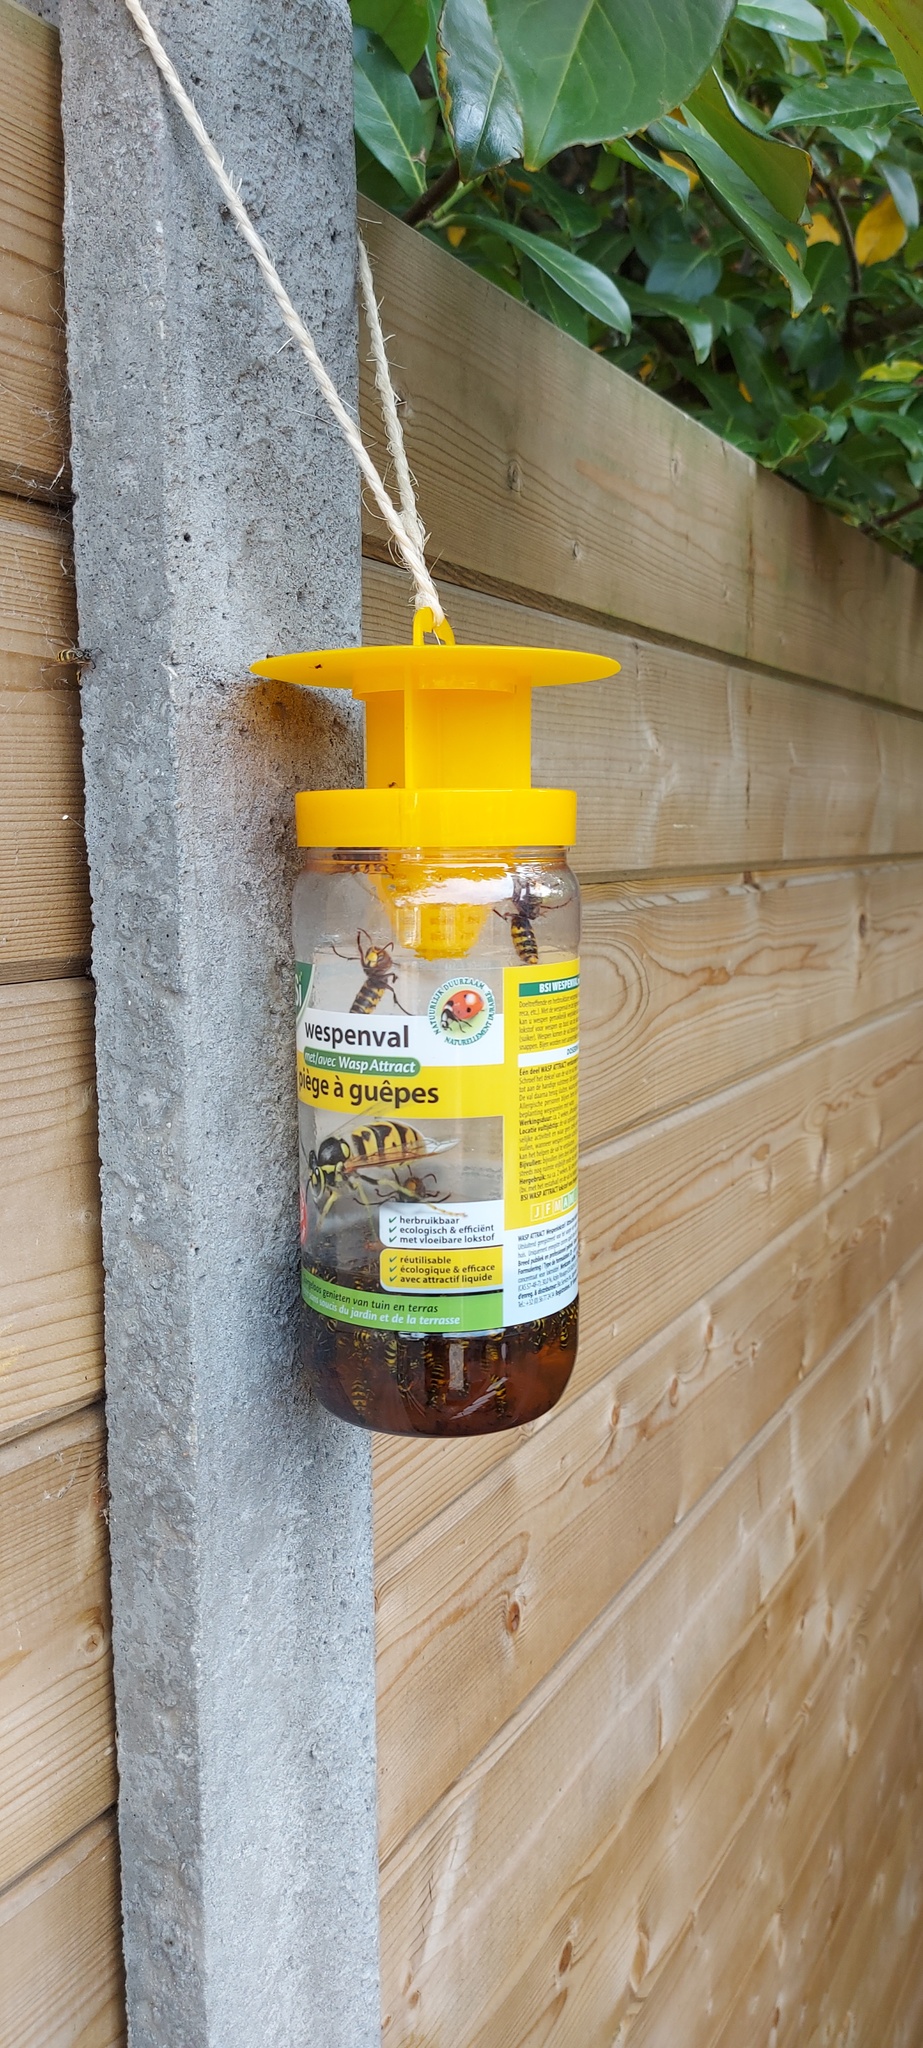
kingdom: Animalia
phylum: Arthropoda
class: Insecta
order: Hymenoptera
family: Vespidae
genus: Vespa
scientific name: Vespa crabro
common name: Hornet
